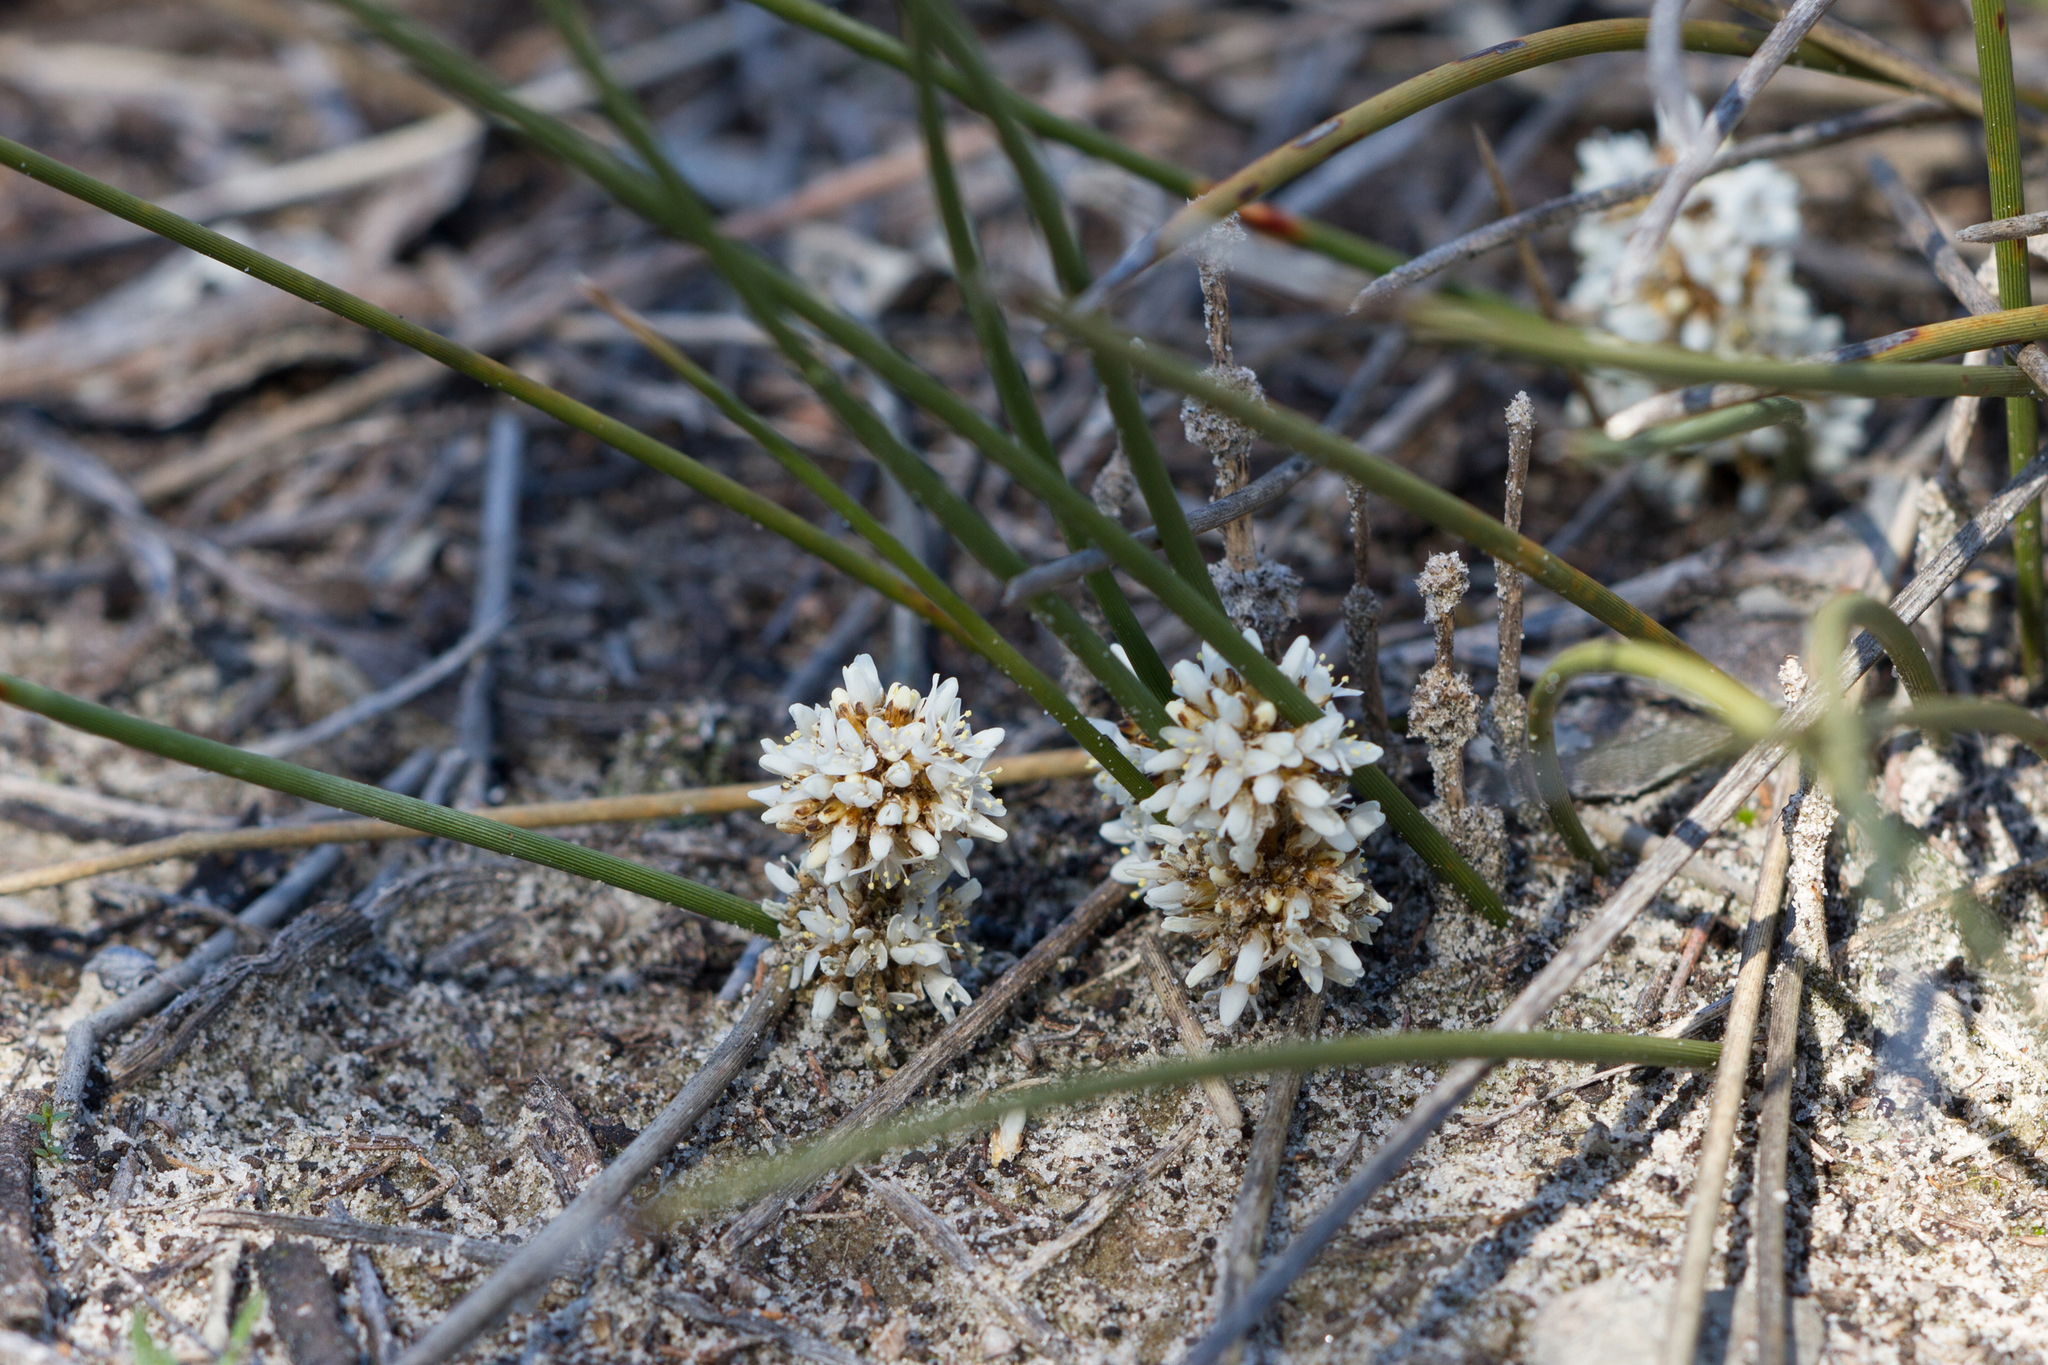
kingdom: Plantae
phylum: Tracheophyta
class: Liliopsida
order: Asparagales
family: Asparagaceae
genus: Lomandra
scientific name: Lomandra juncea
